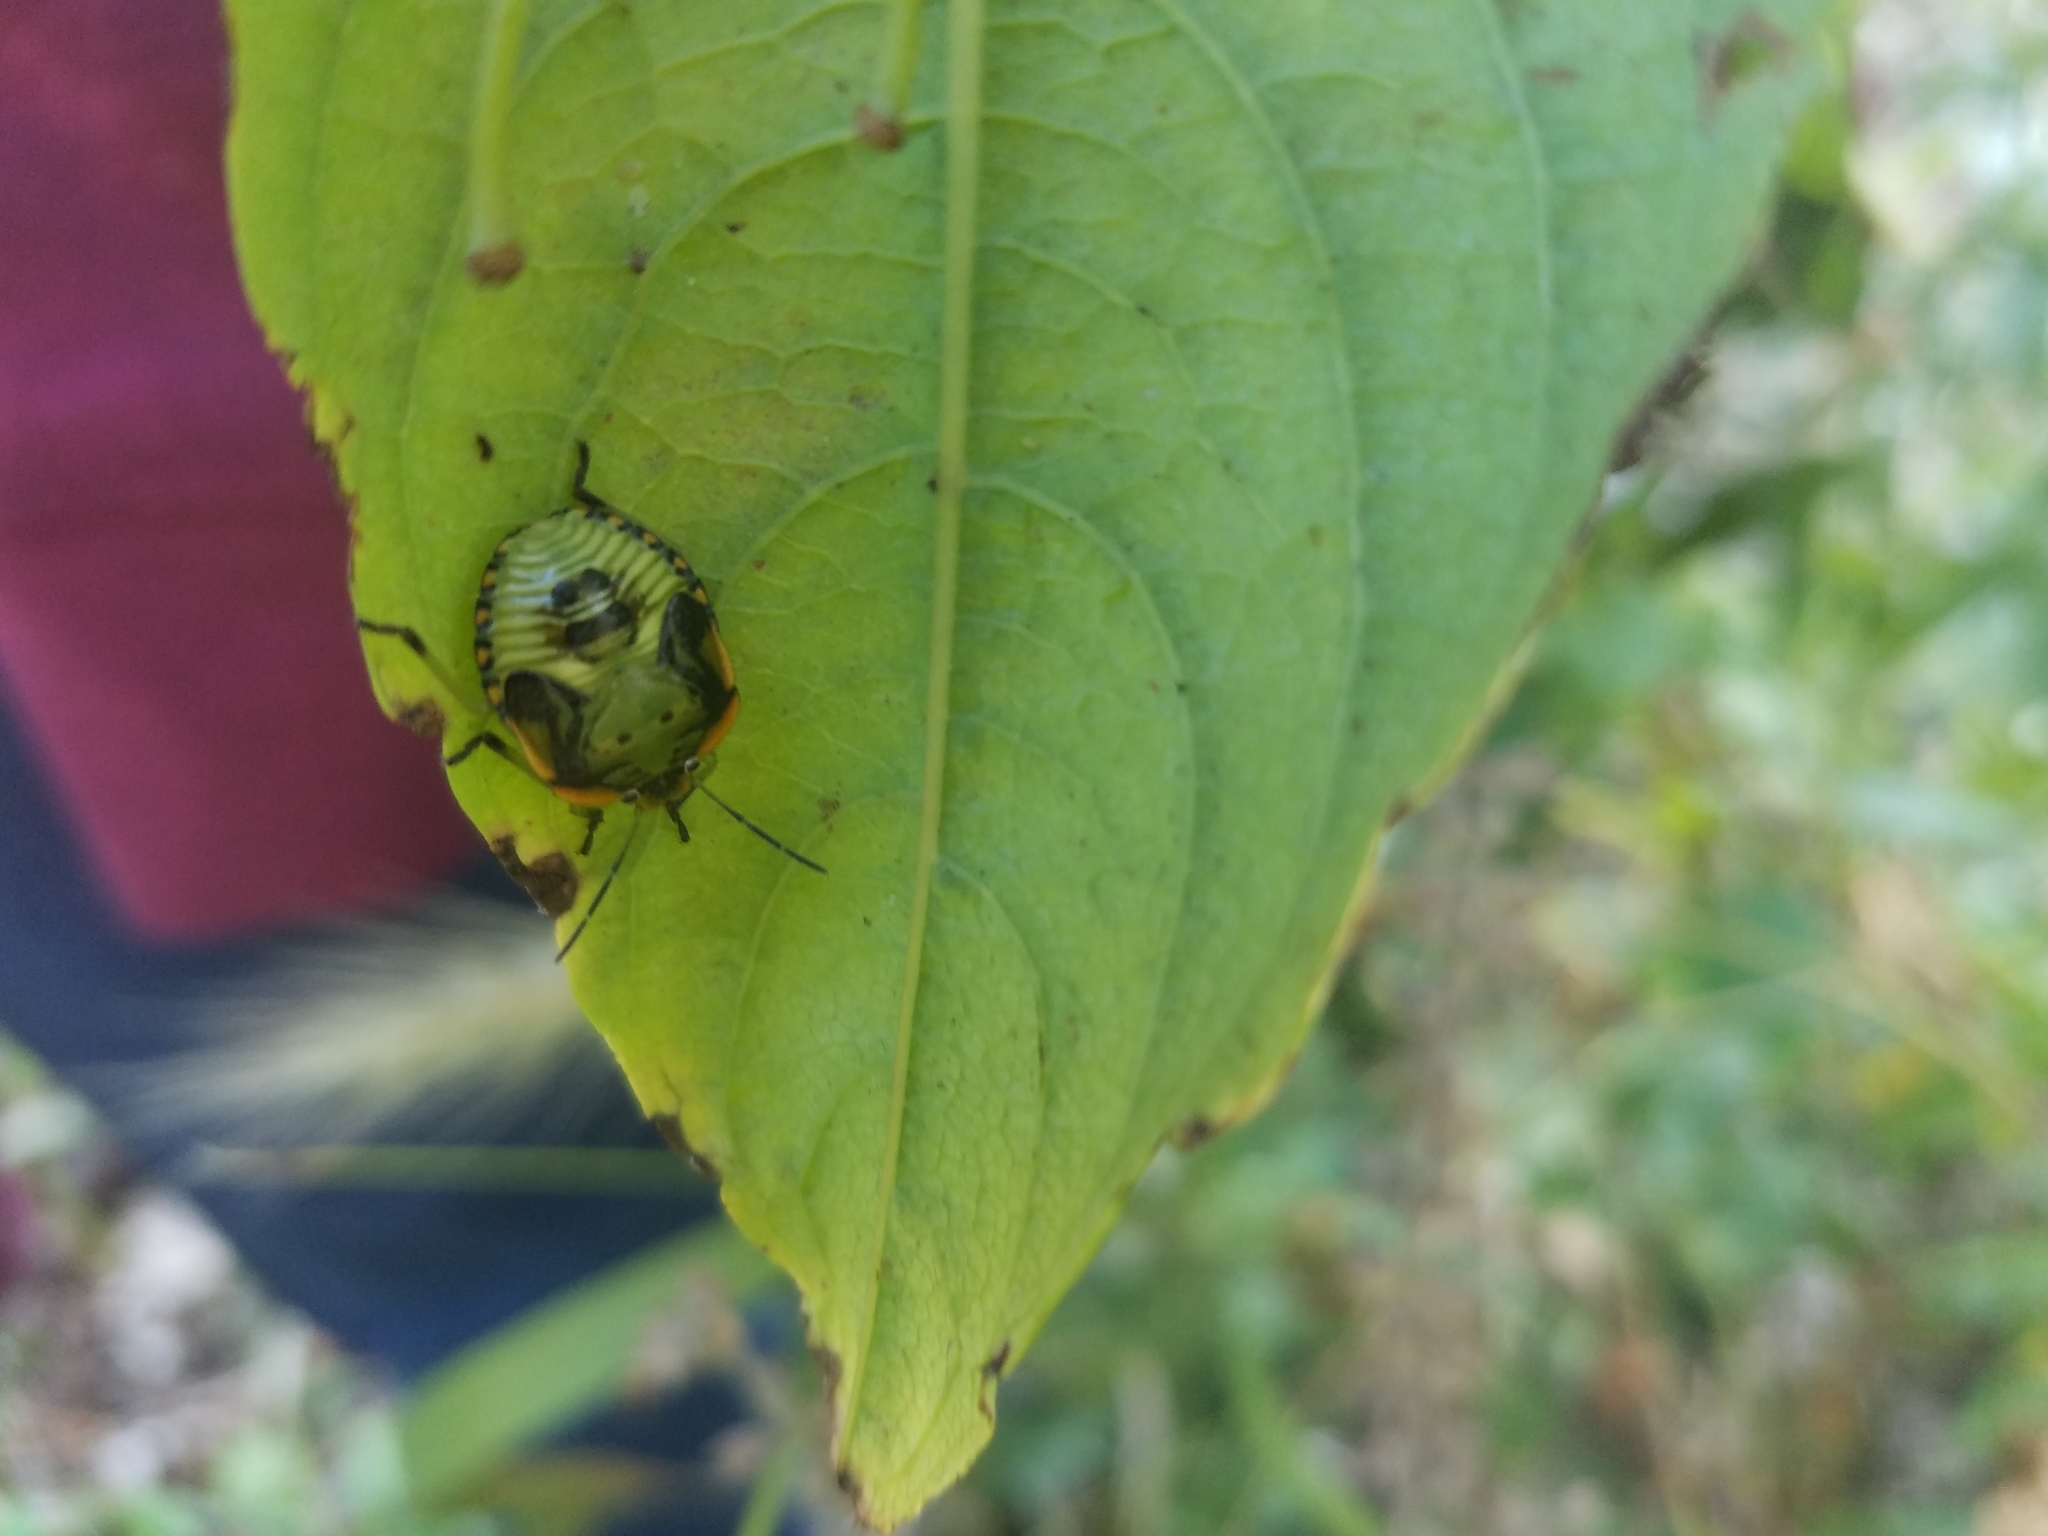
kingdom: Animalia
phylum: Arthropoda
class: Insecta
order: Hemiptera
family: Pentatomidae
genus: Chinavia
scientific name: Chinavia hilaris
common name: Green stink bug
